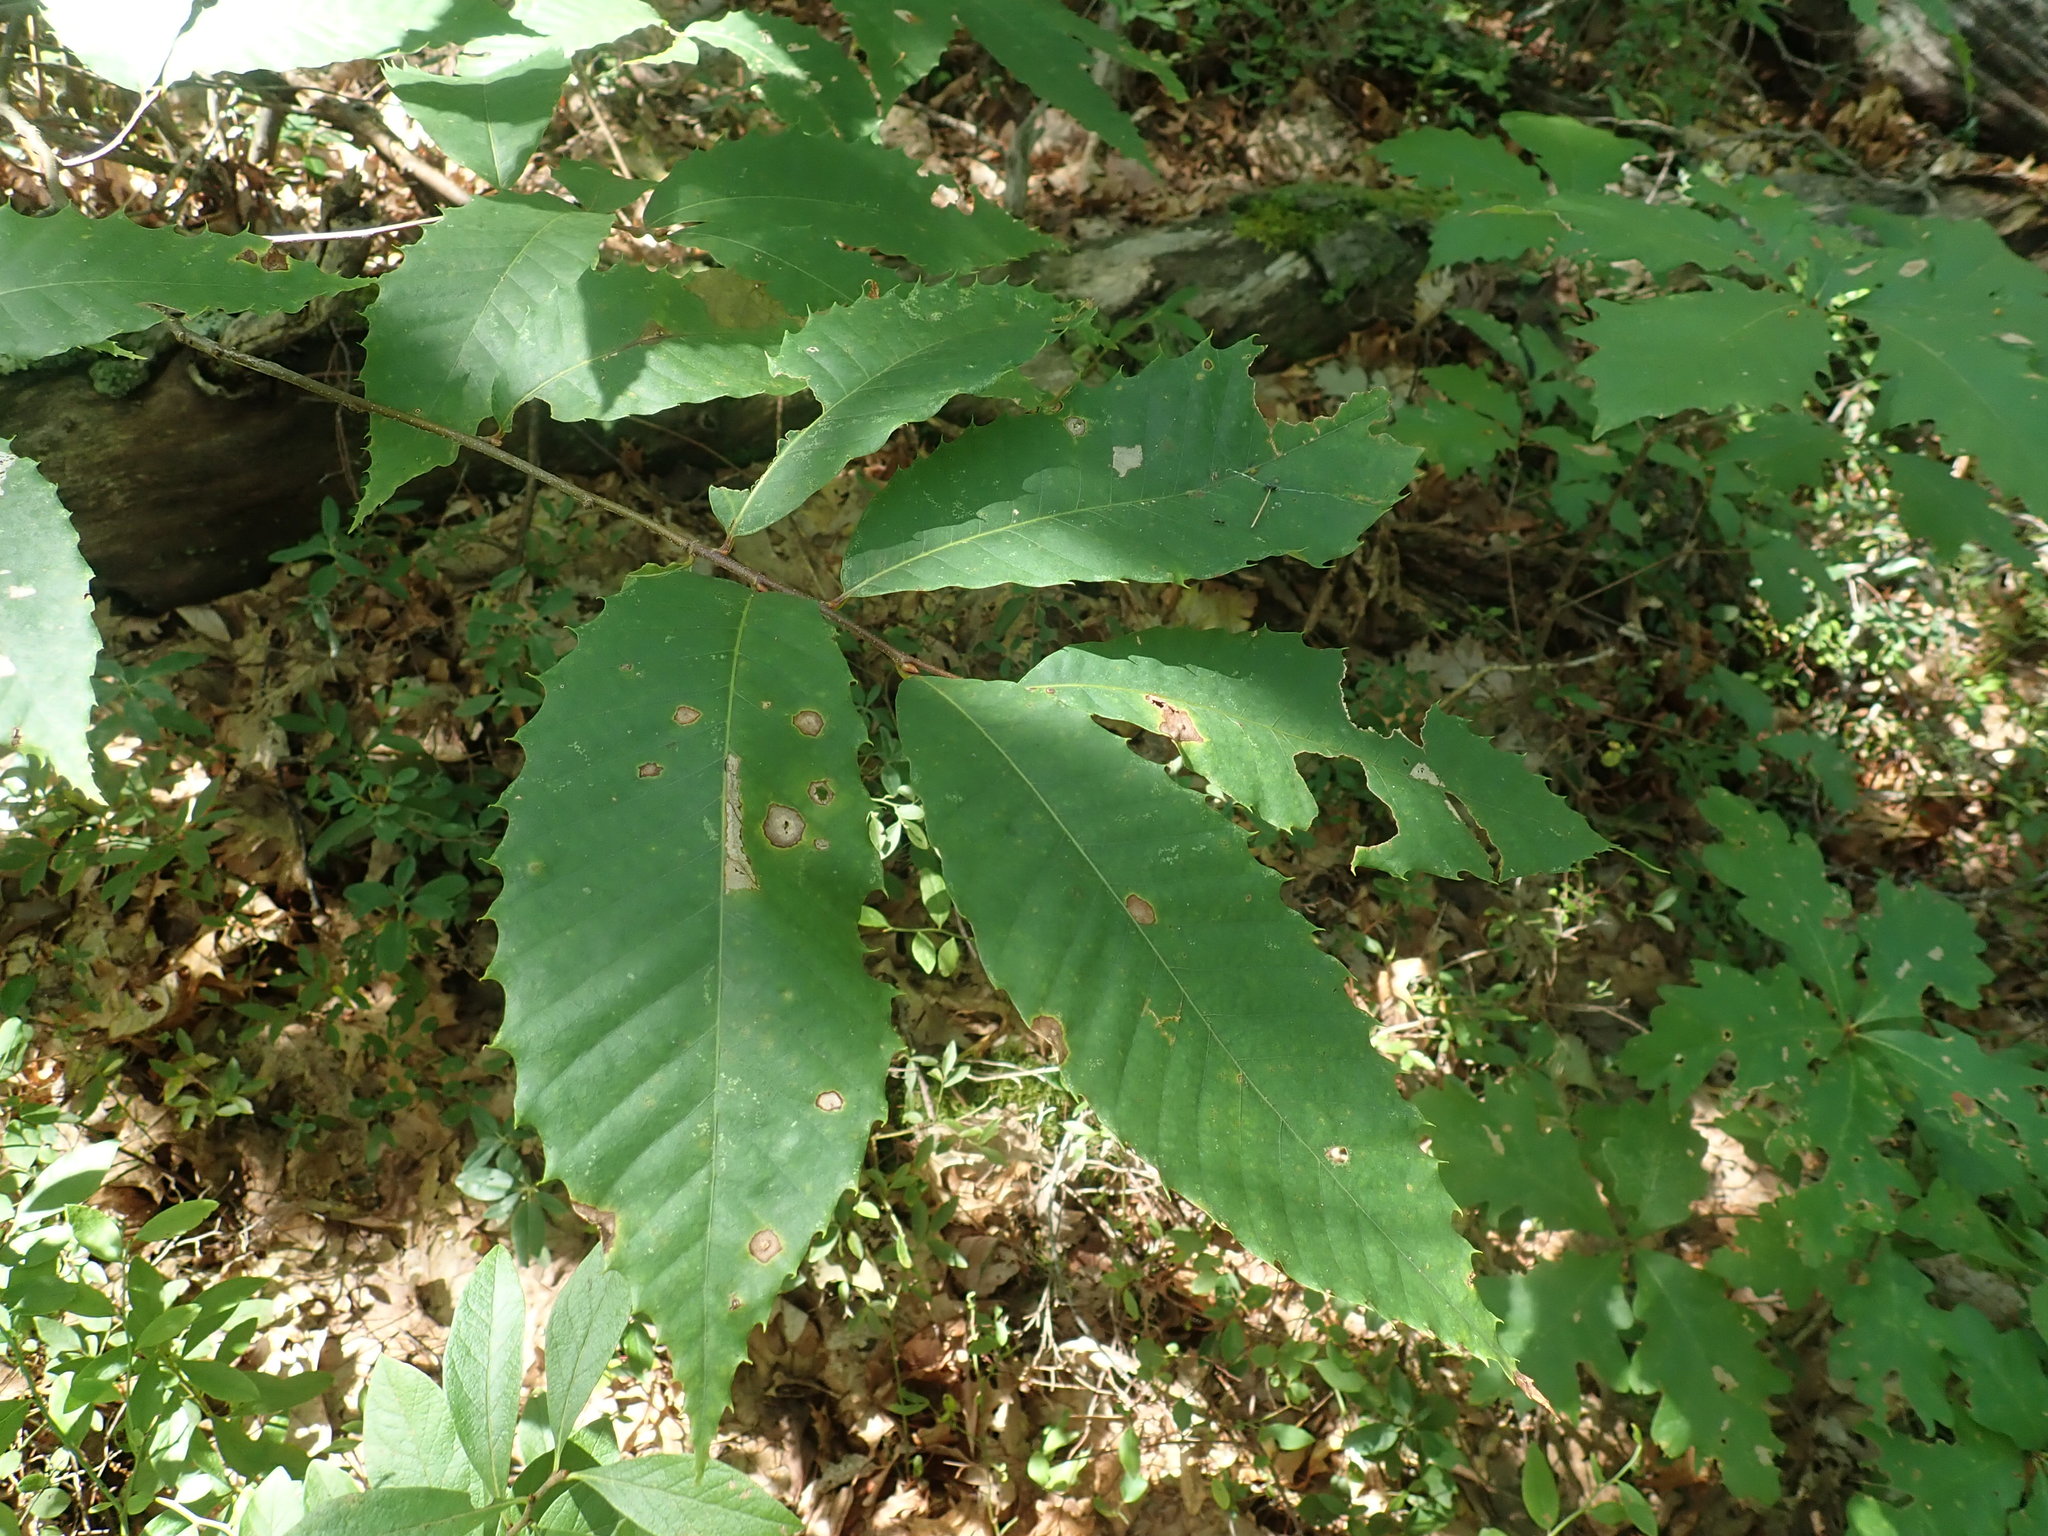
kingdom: Plantae
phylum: Tracheophyta
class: Magnoliopsida
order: Fagales
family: Fagaceae
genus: Castanea
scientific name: Castanea dentata
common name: American chestnut
